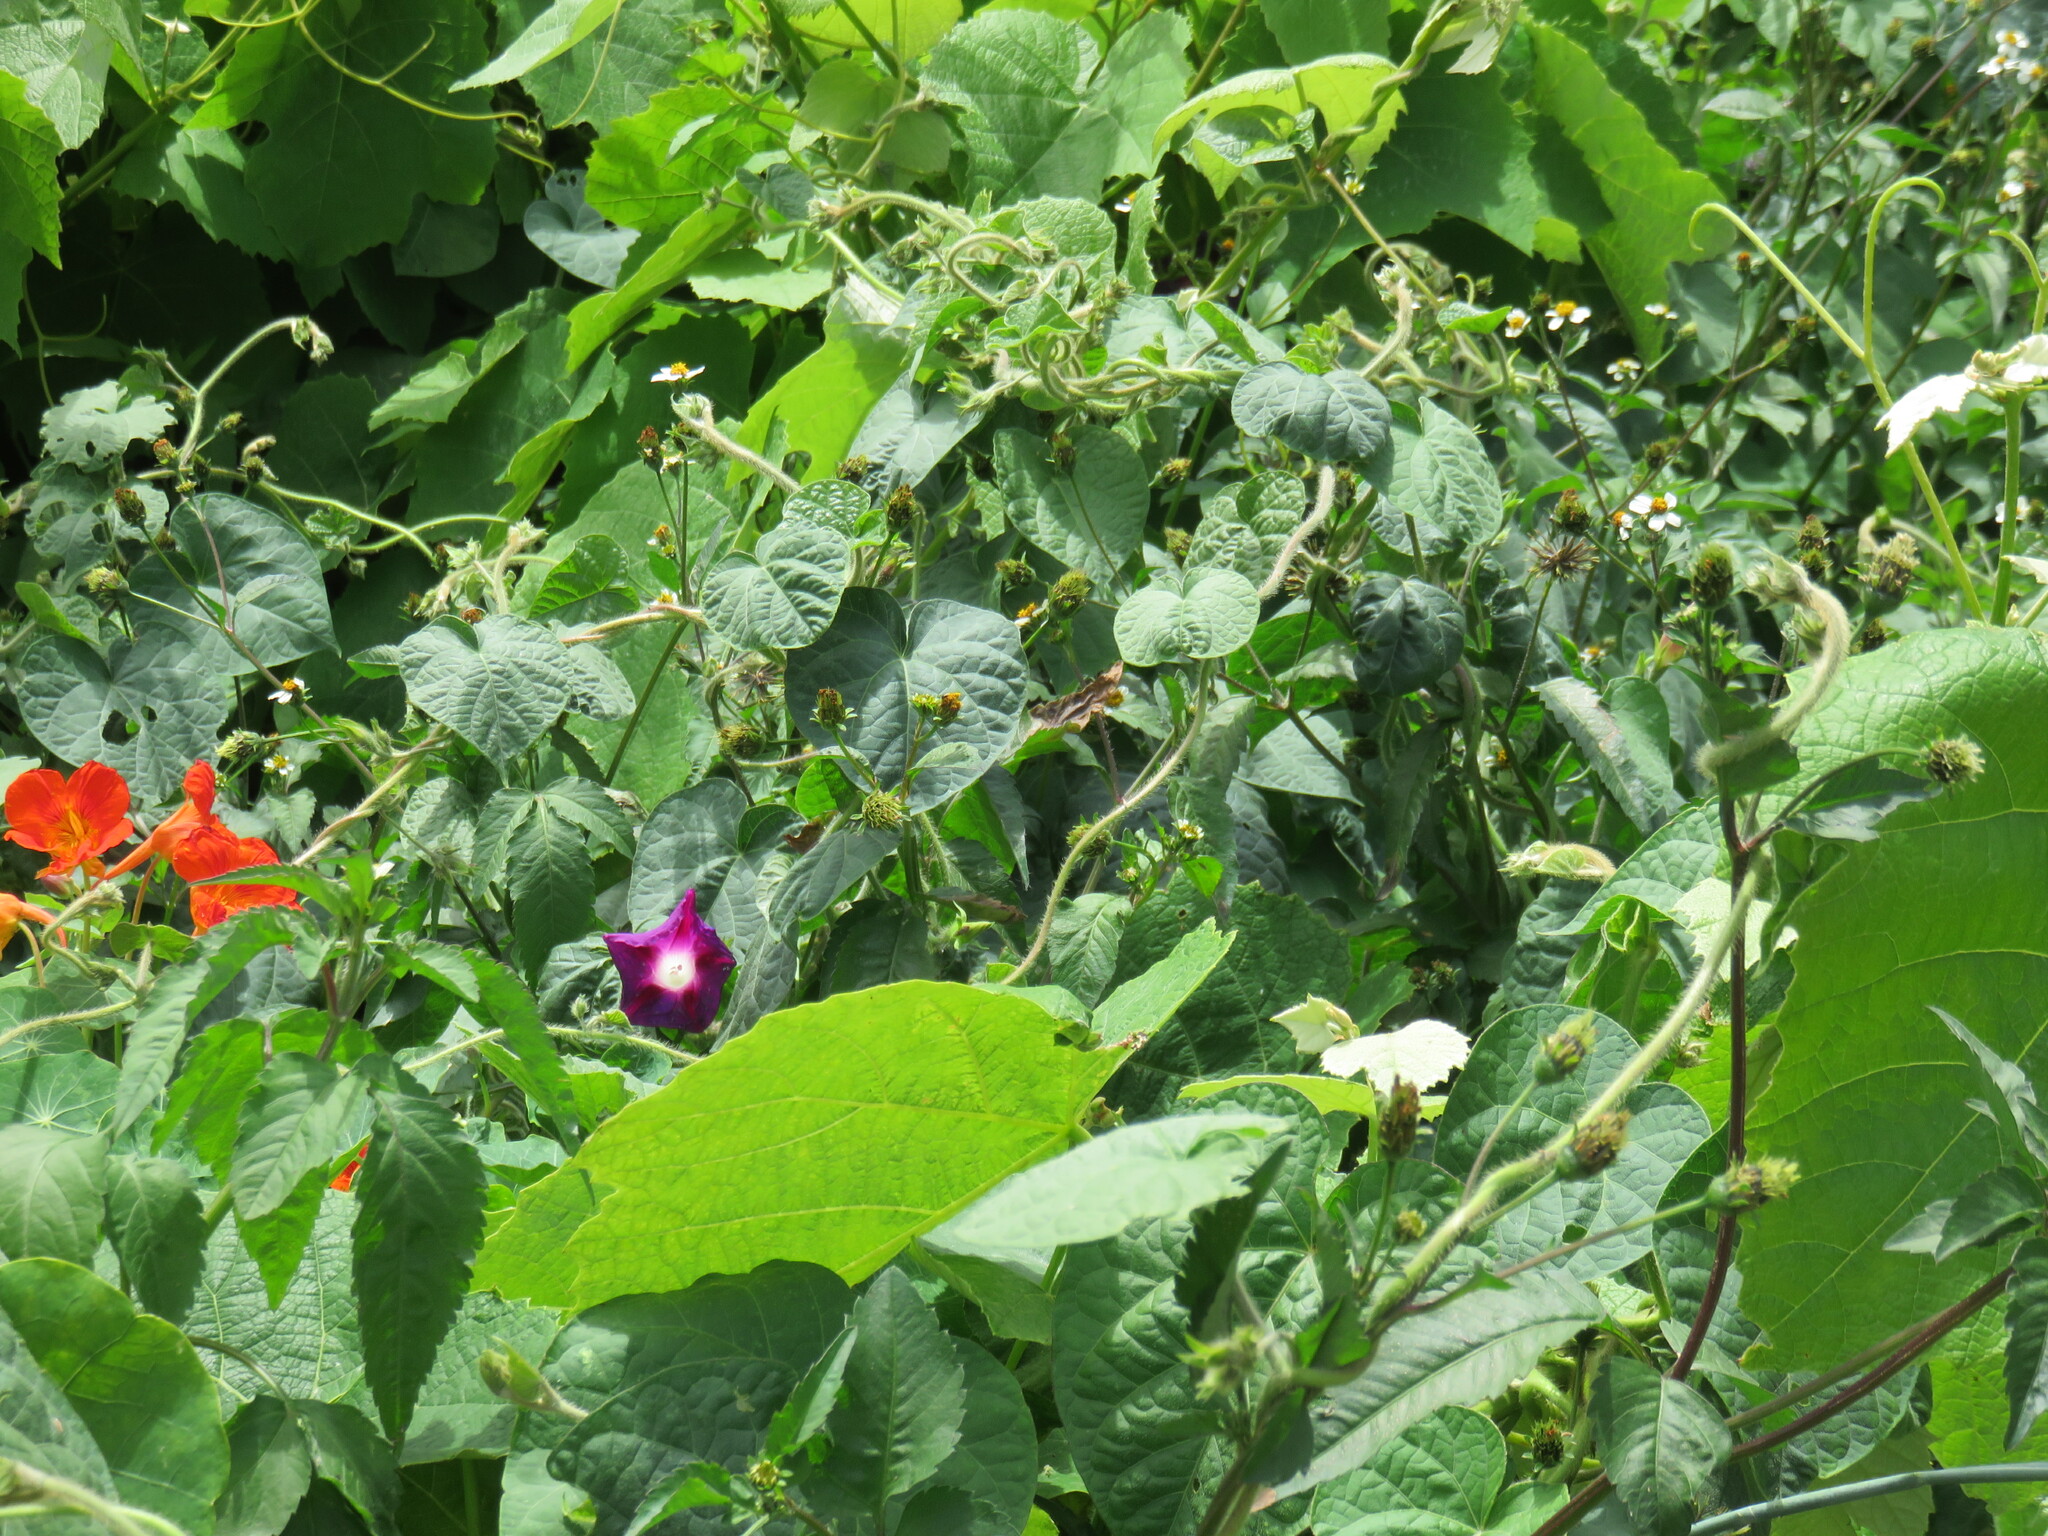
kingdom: Plantae
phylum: Tracheophyta
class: Magnoliopsida
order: Solanales
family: Convolvulaceae
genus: Ipomoea
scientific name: Ipomoea purpurea
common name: Common morning-glory
